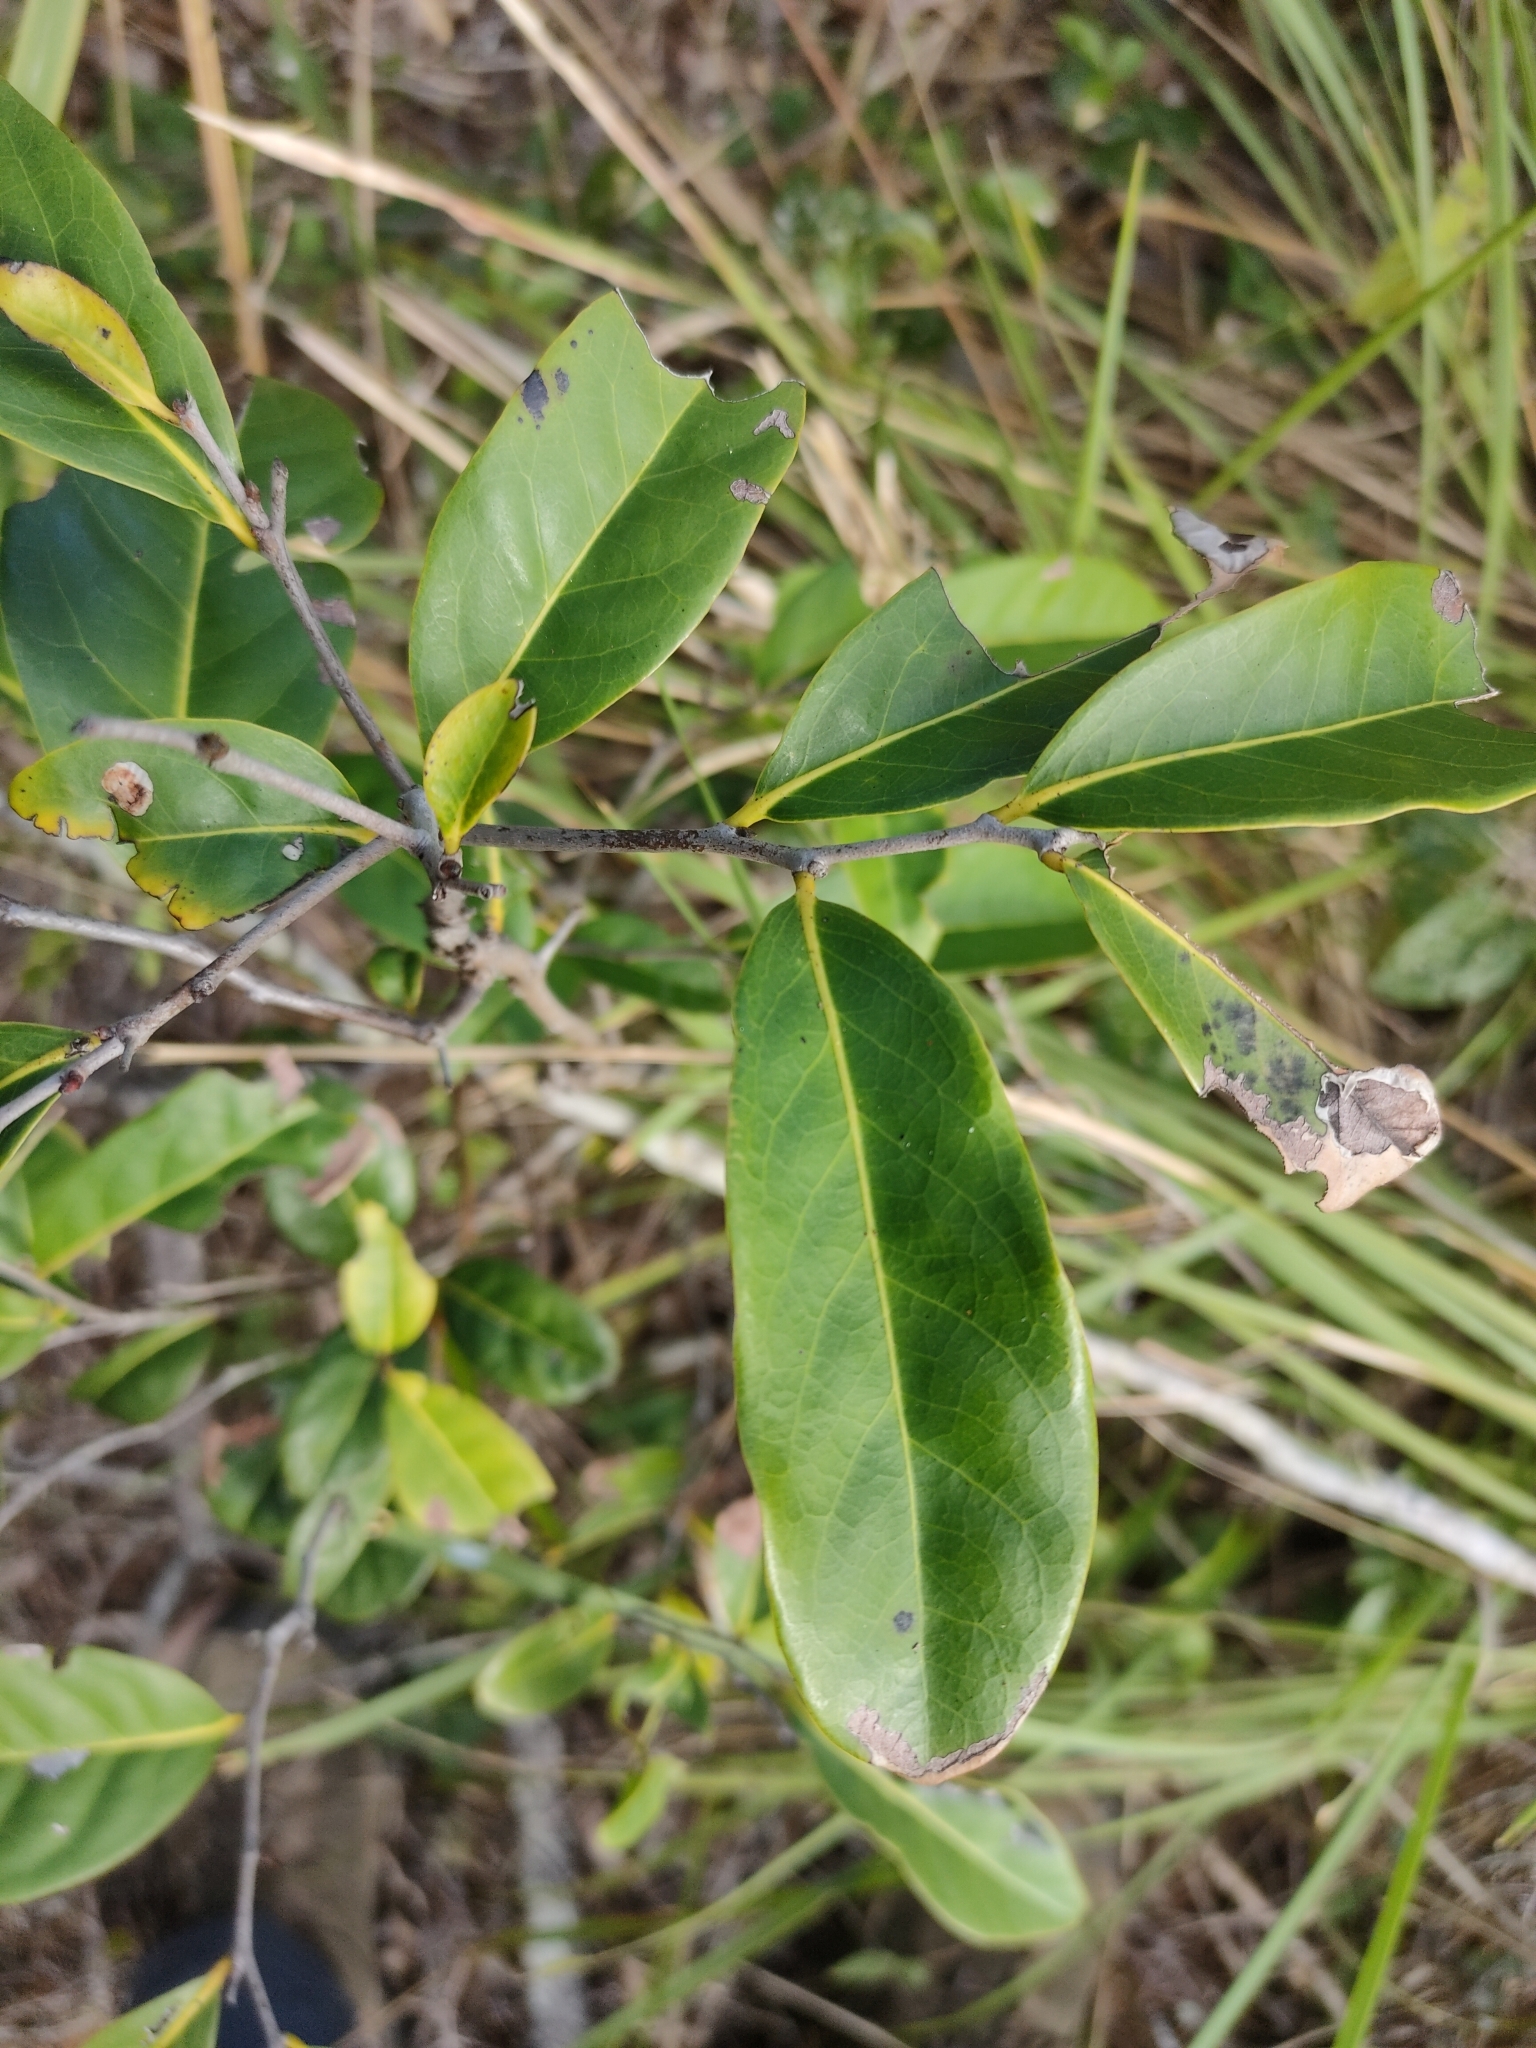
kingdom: Plantae
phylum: Tracheophyta
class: Magnoliopsida
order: Ericales
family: Ebenaceae
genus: Diospyros
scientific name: Diospyros fasciculosa
